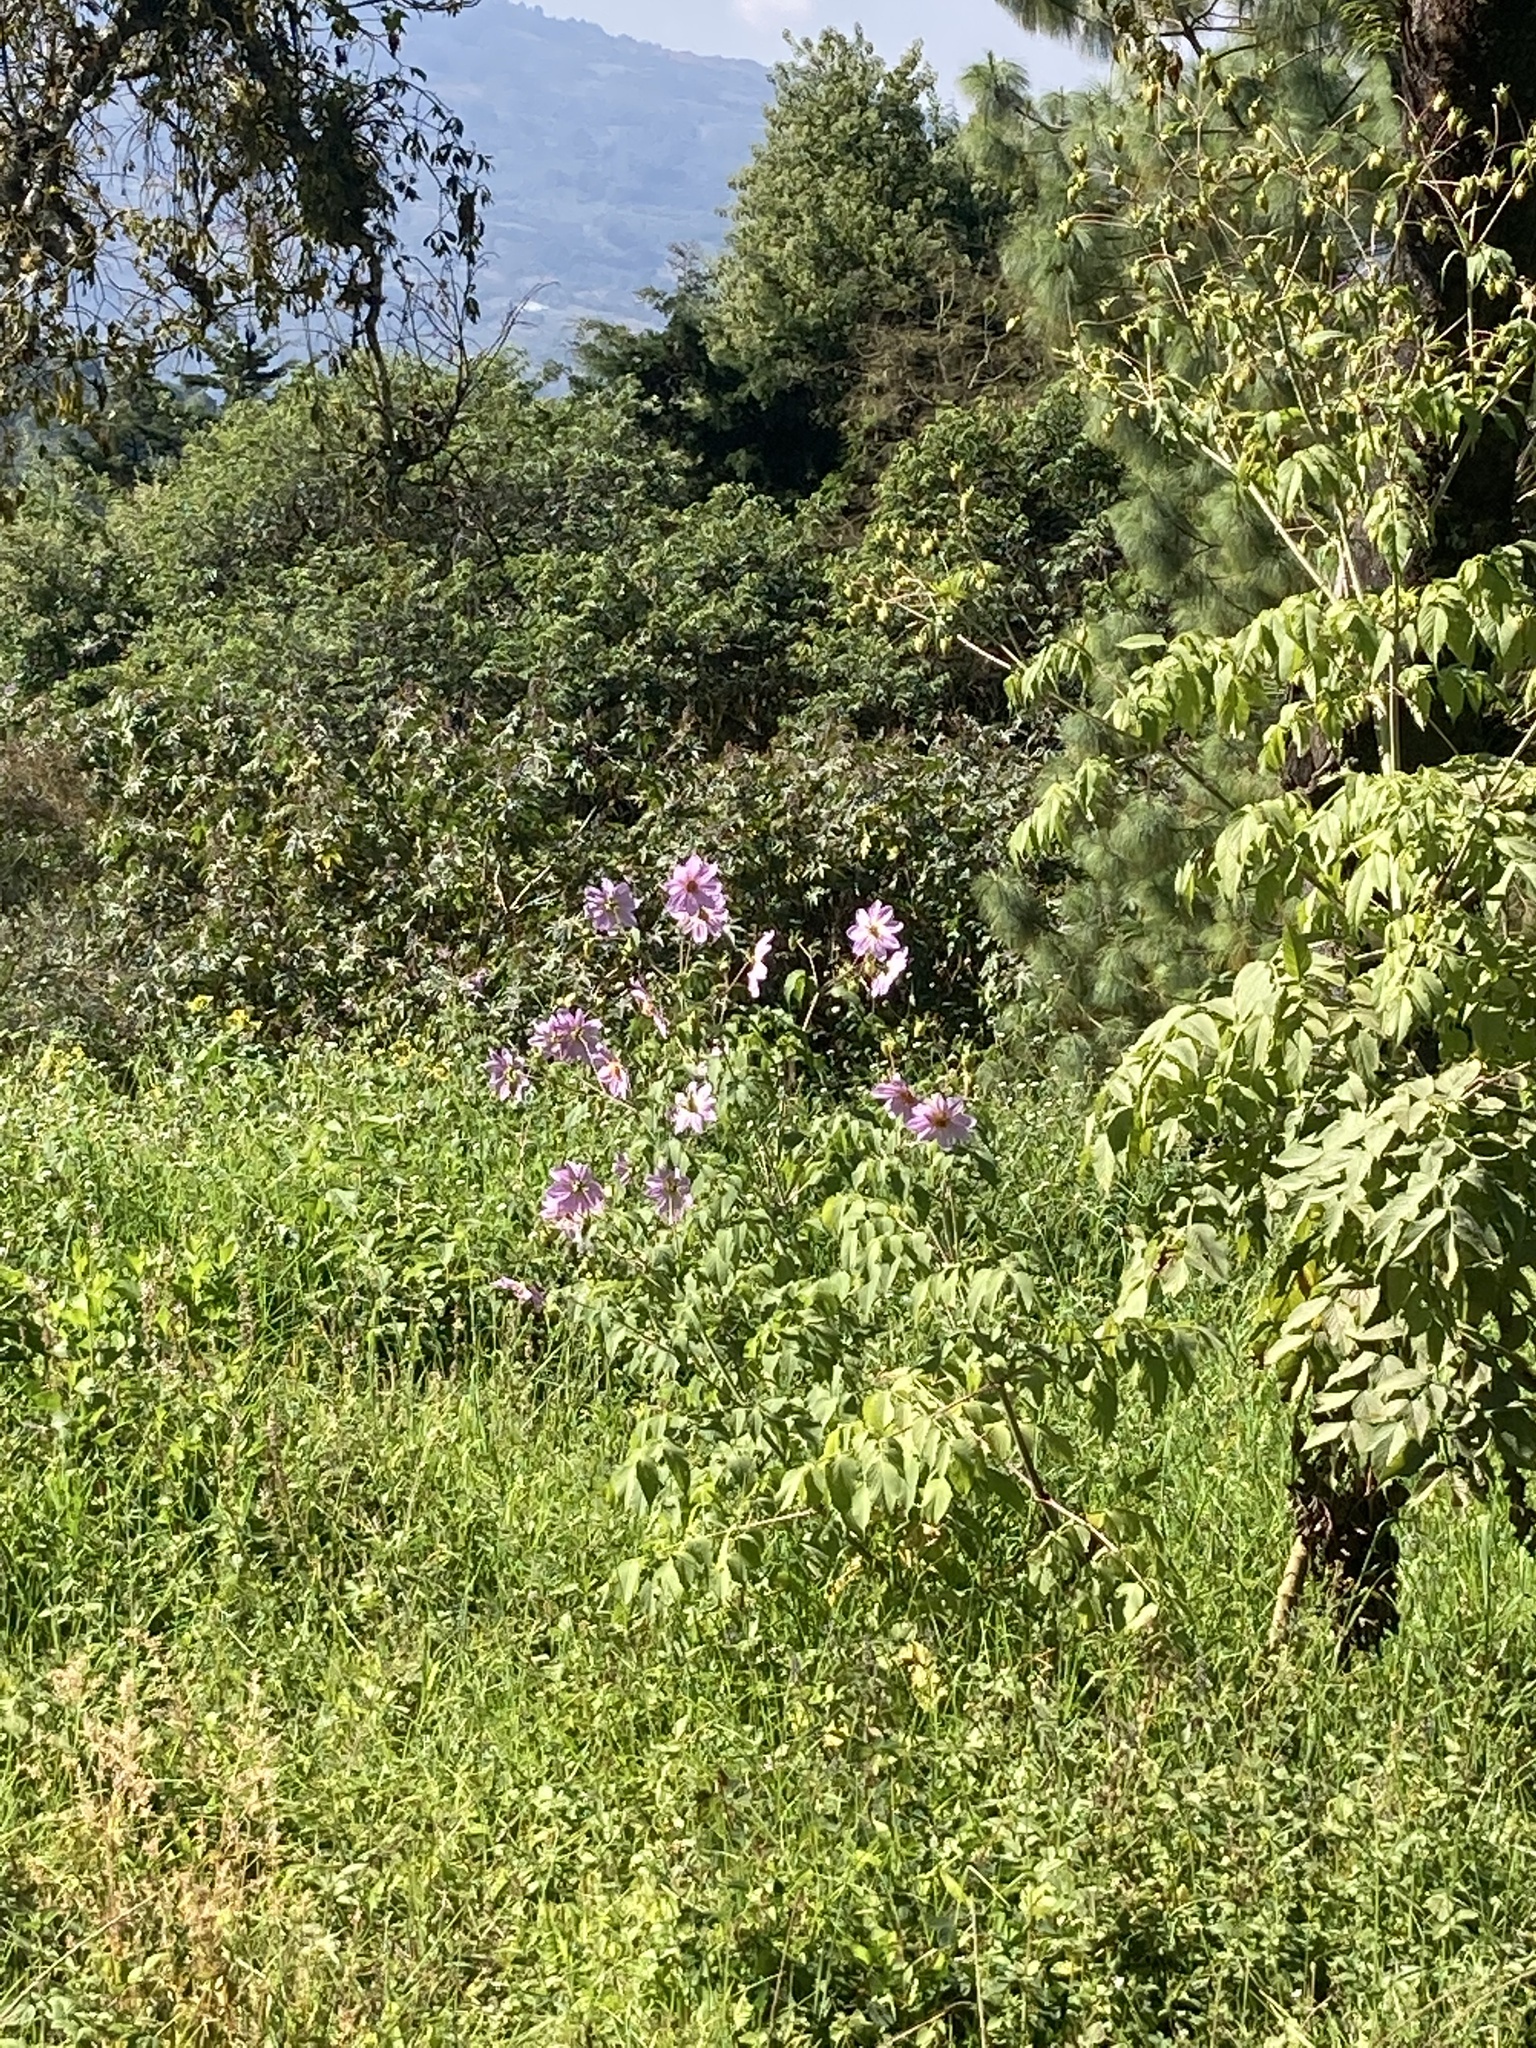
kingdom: Plantae
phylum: Tracheophyta
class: Magnoliopsida
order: Asterales
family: Asteraceae
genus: Dahlia
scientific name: Dahlia imperialis
